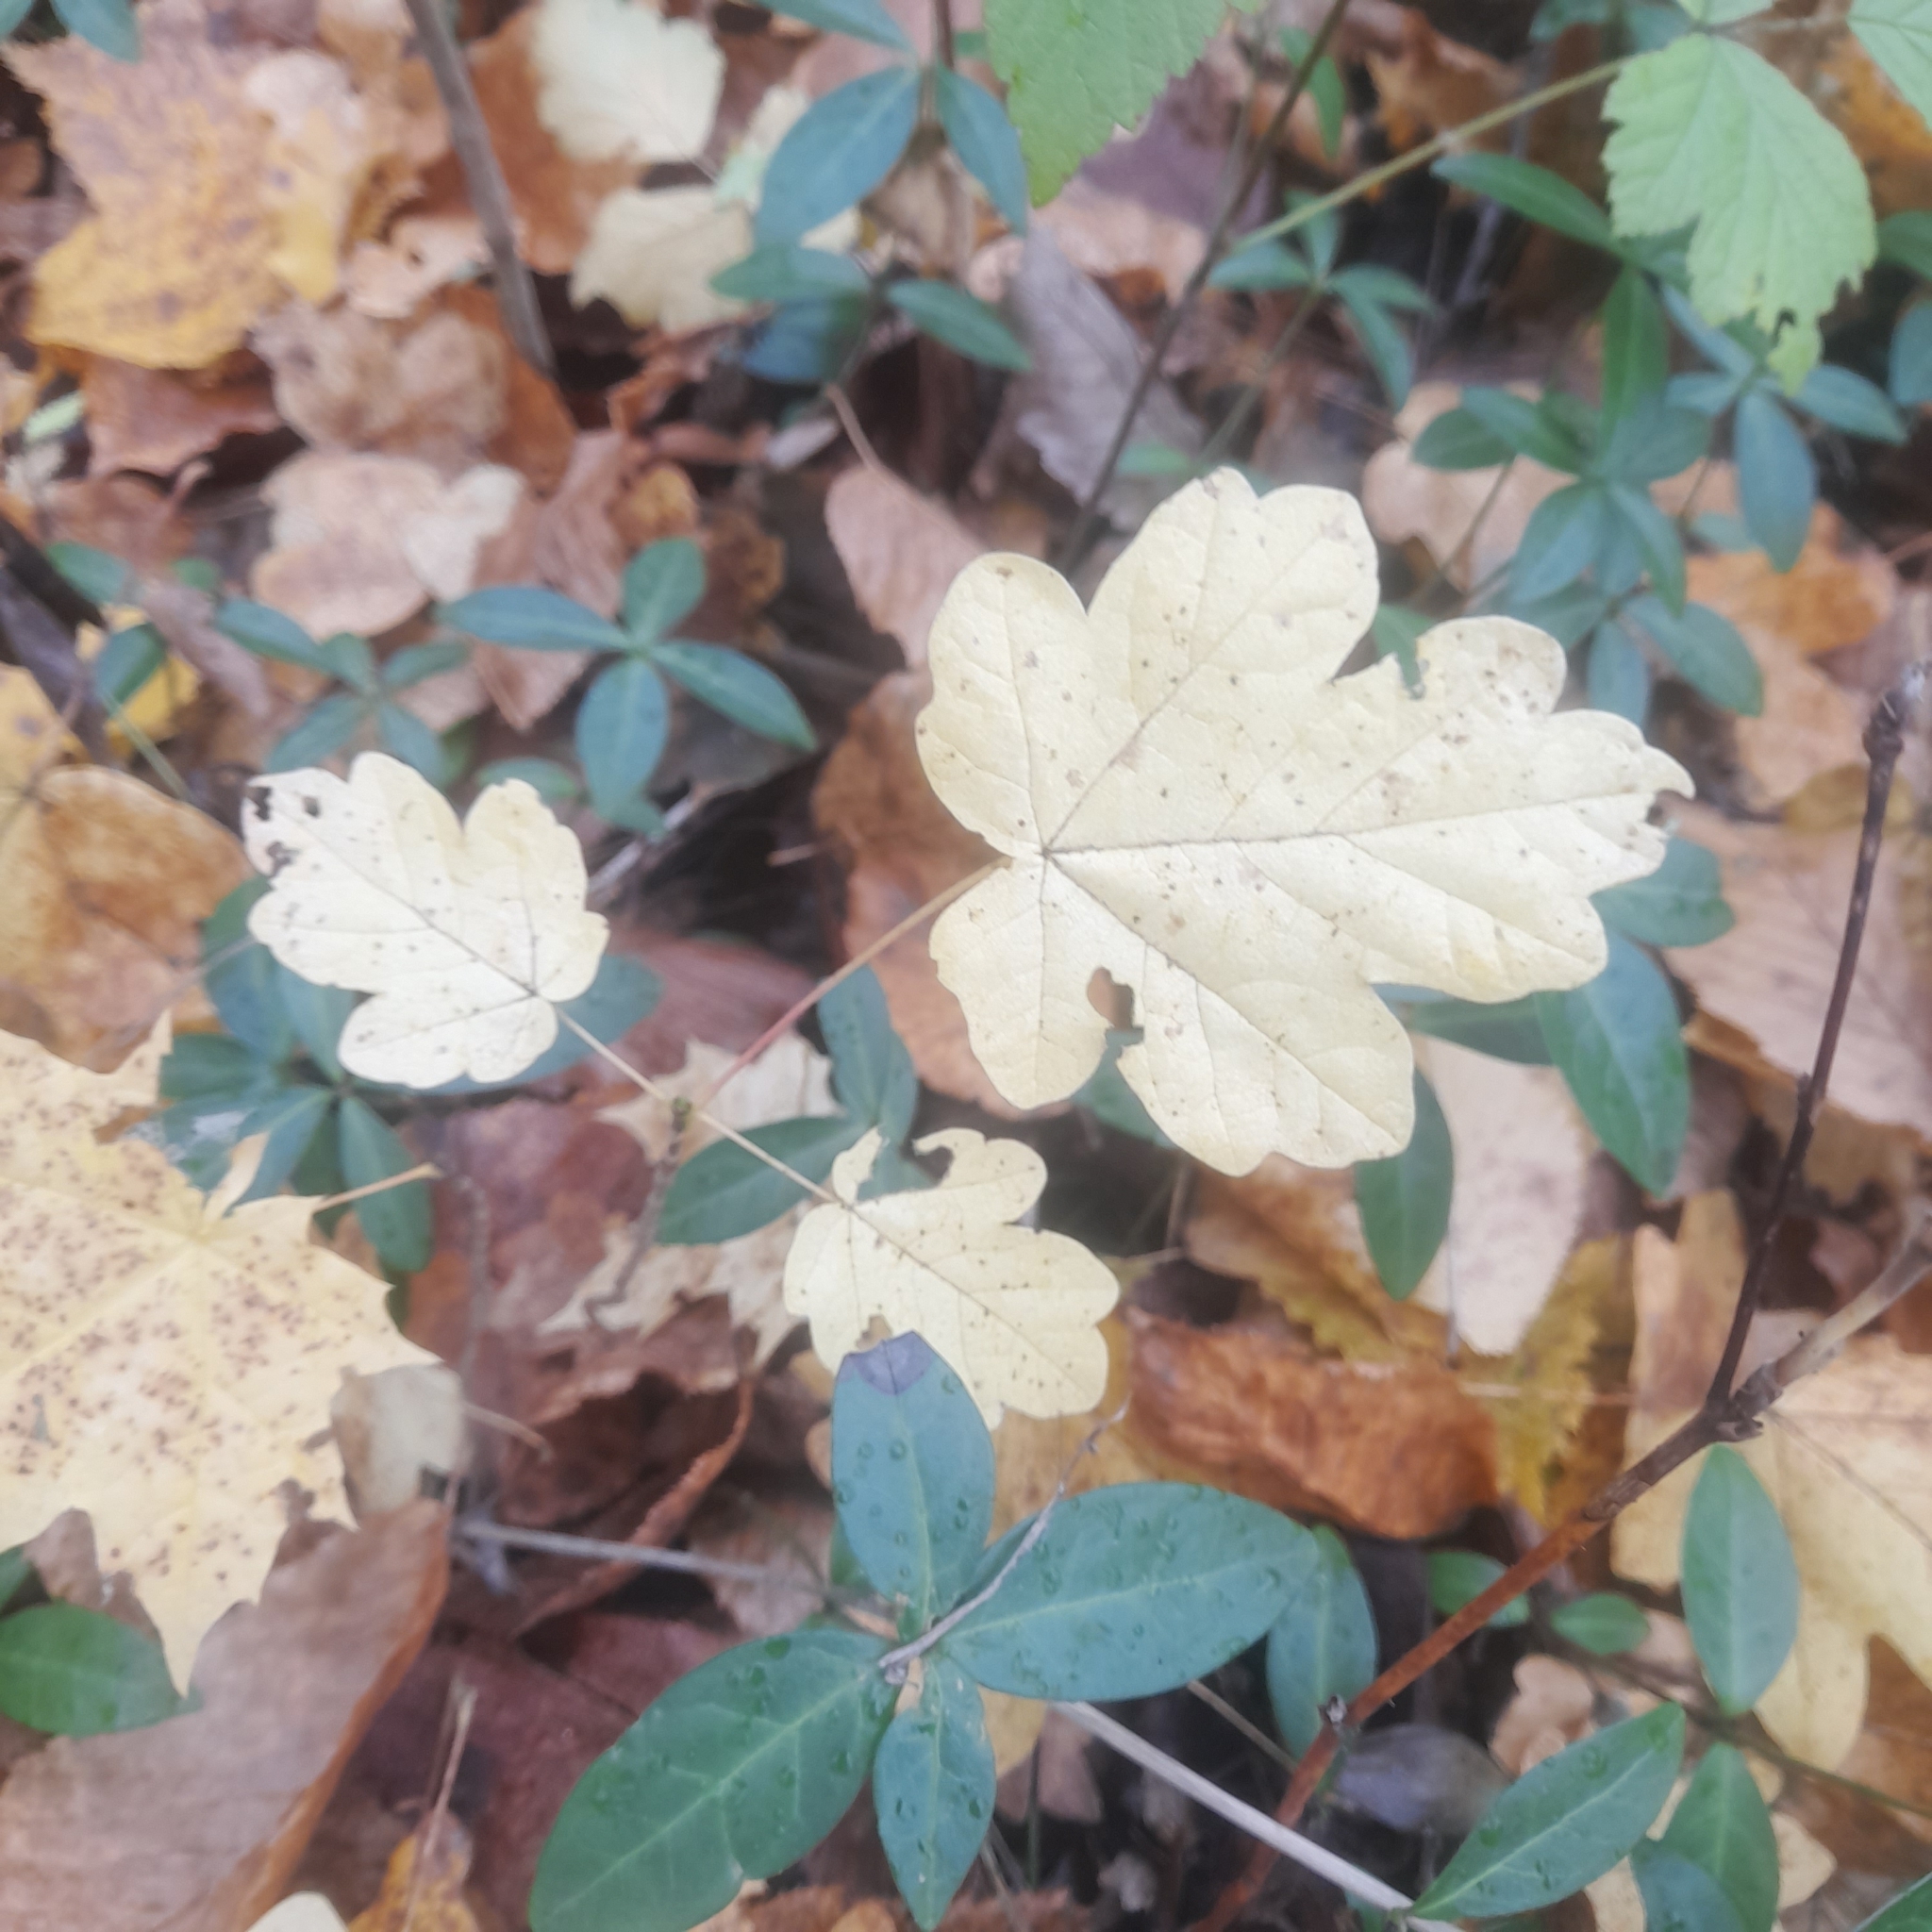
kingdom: Plantae
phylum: Tracheophyta
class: Magnoliopsida
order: Sapindales
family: Sapindaceae
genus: Acer
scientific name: Acer campestre
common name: Field maple
